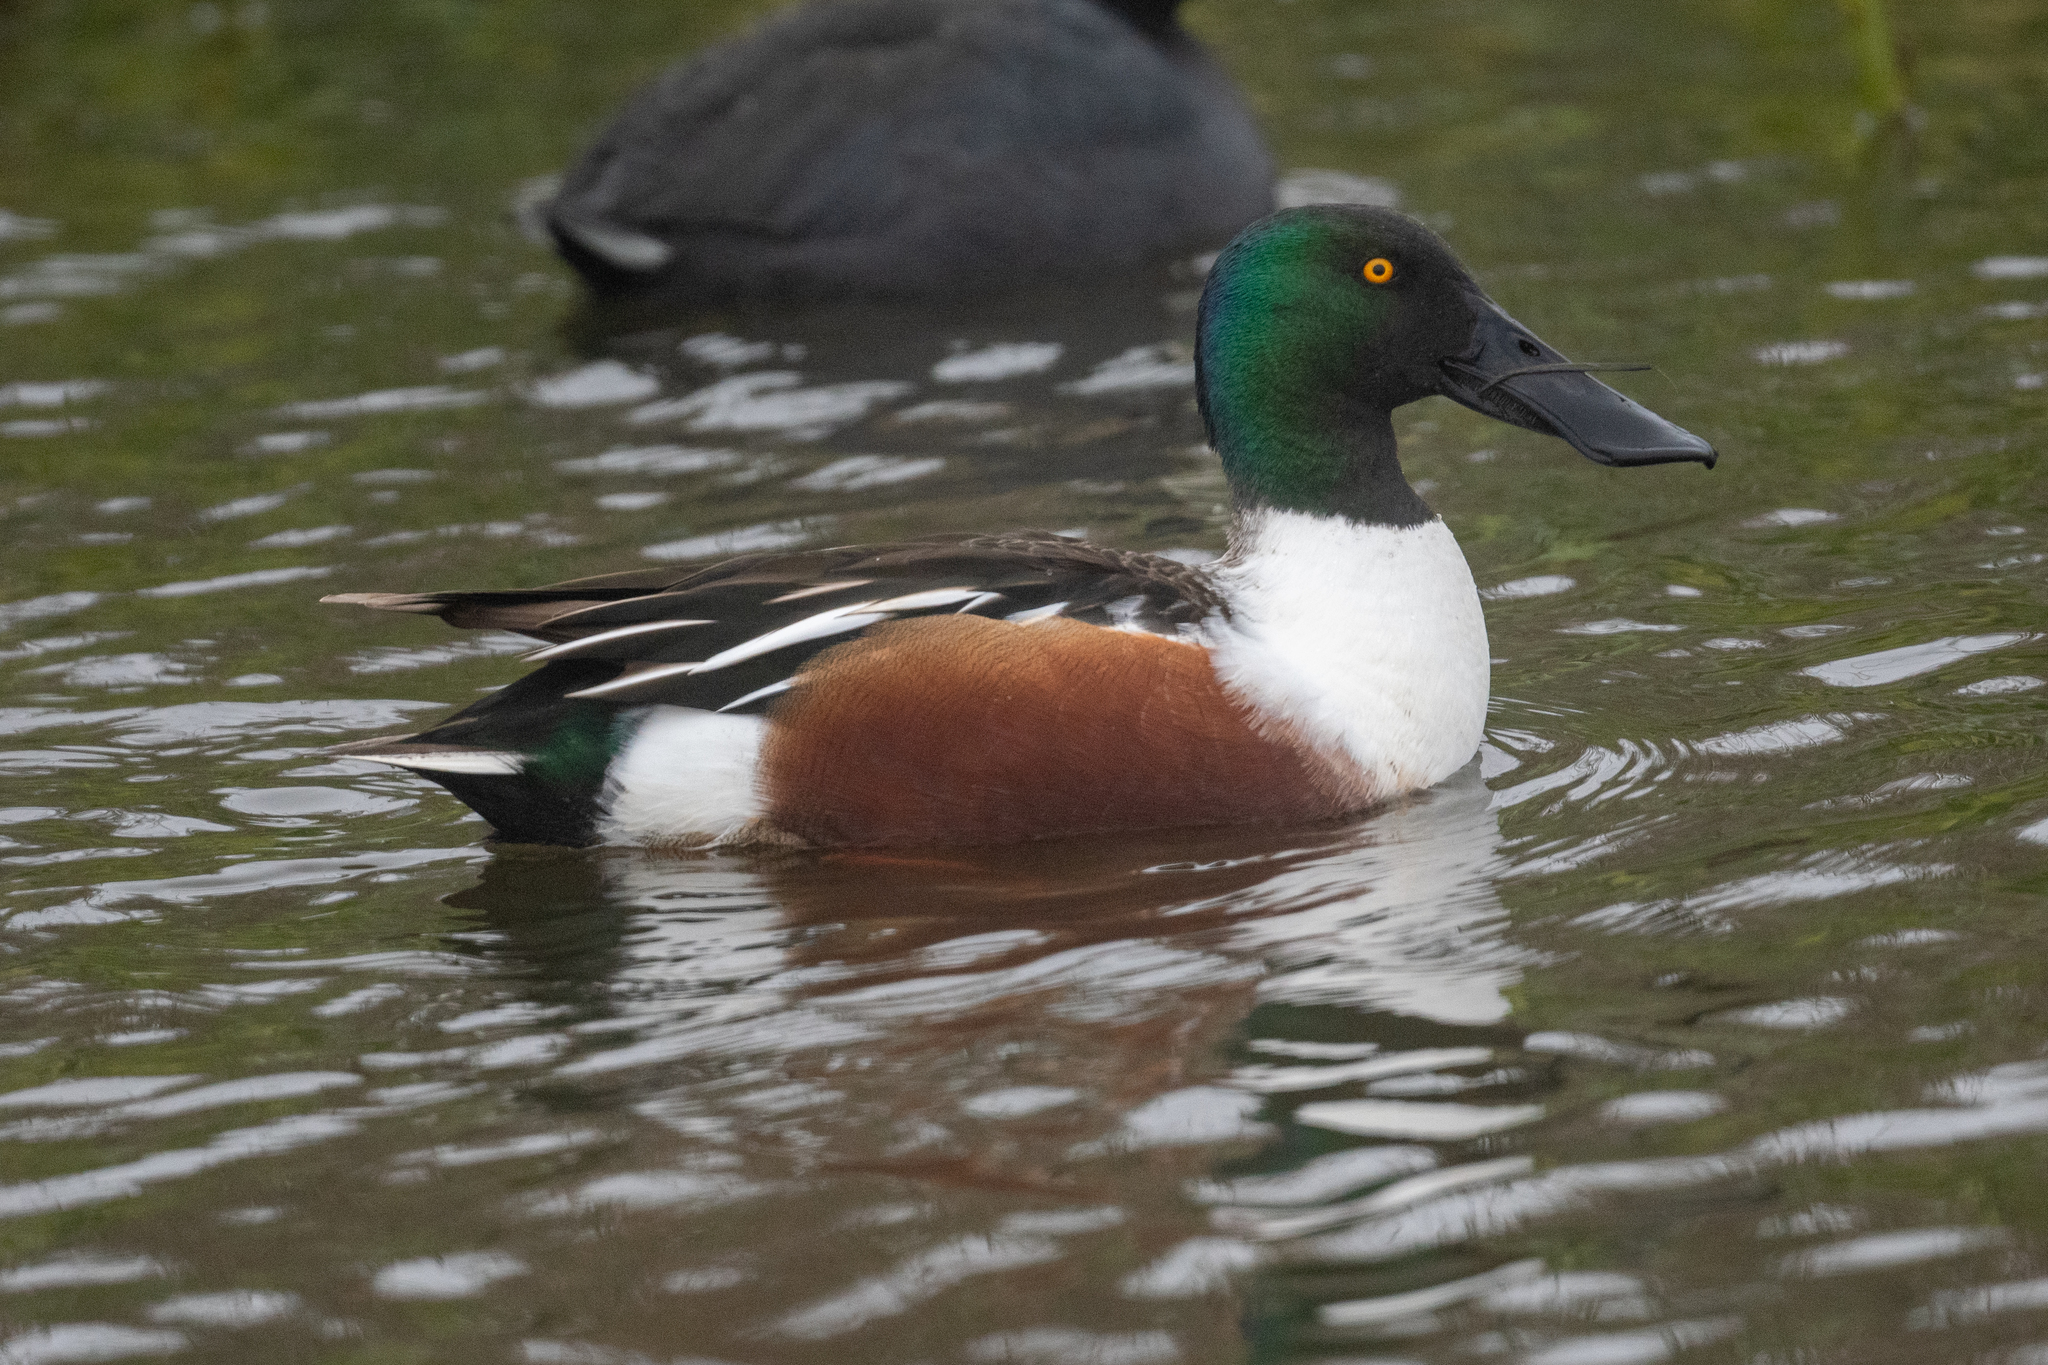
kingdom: Animalia
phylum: Chordata
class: Aves
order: Anseriformes
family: Anatidae
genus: Spatula
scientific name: Spatula clypeata
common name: Northern shoveler
